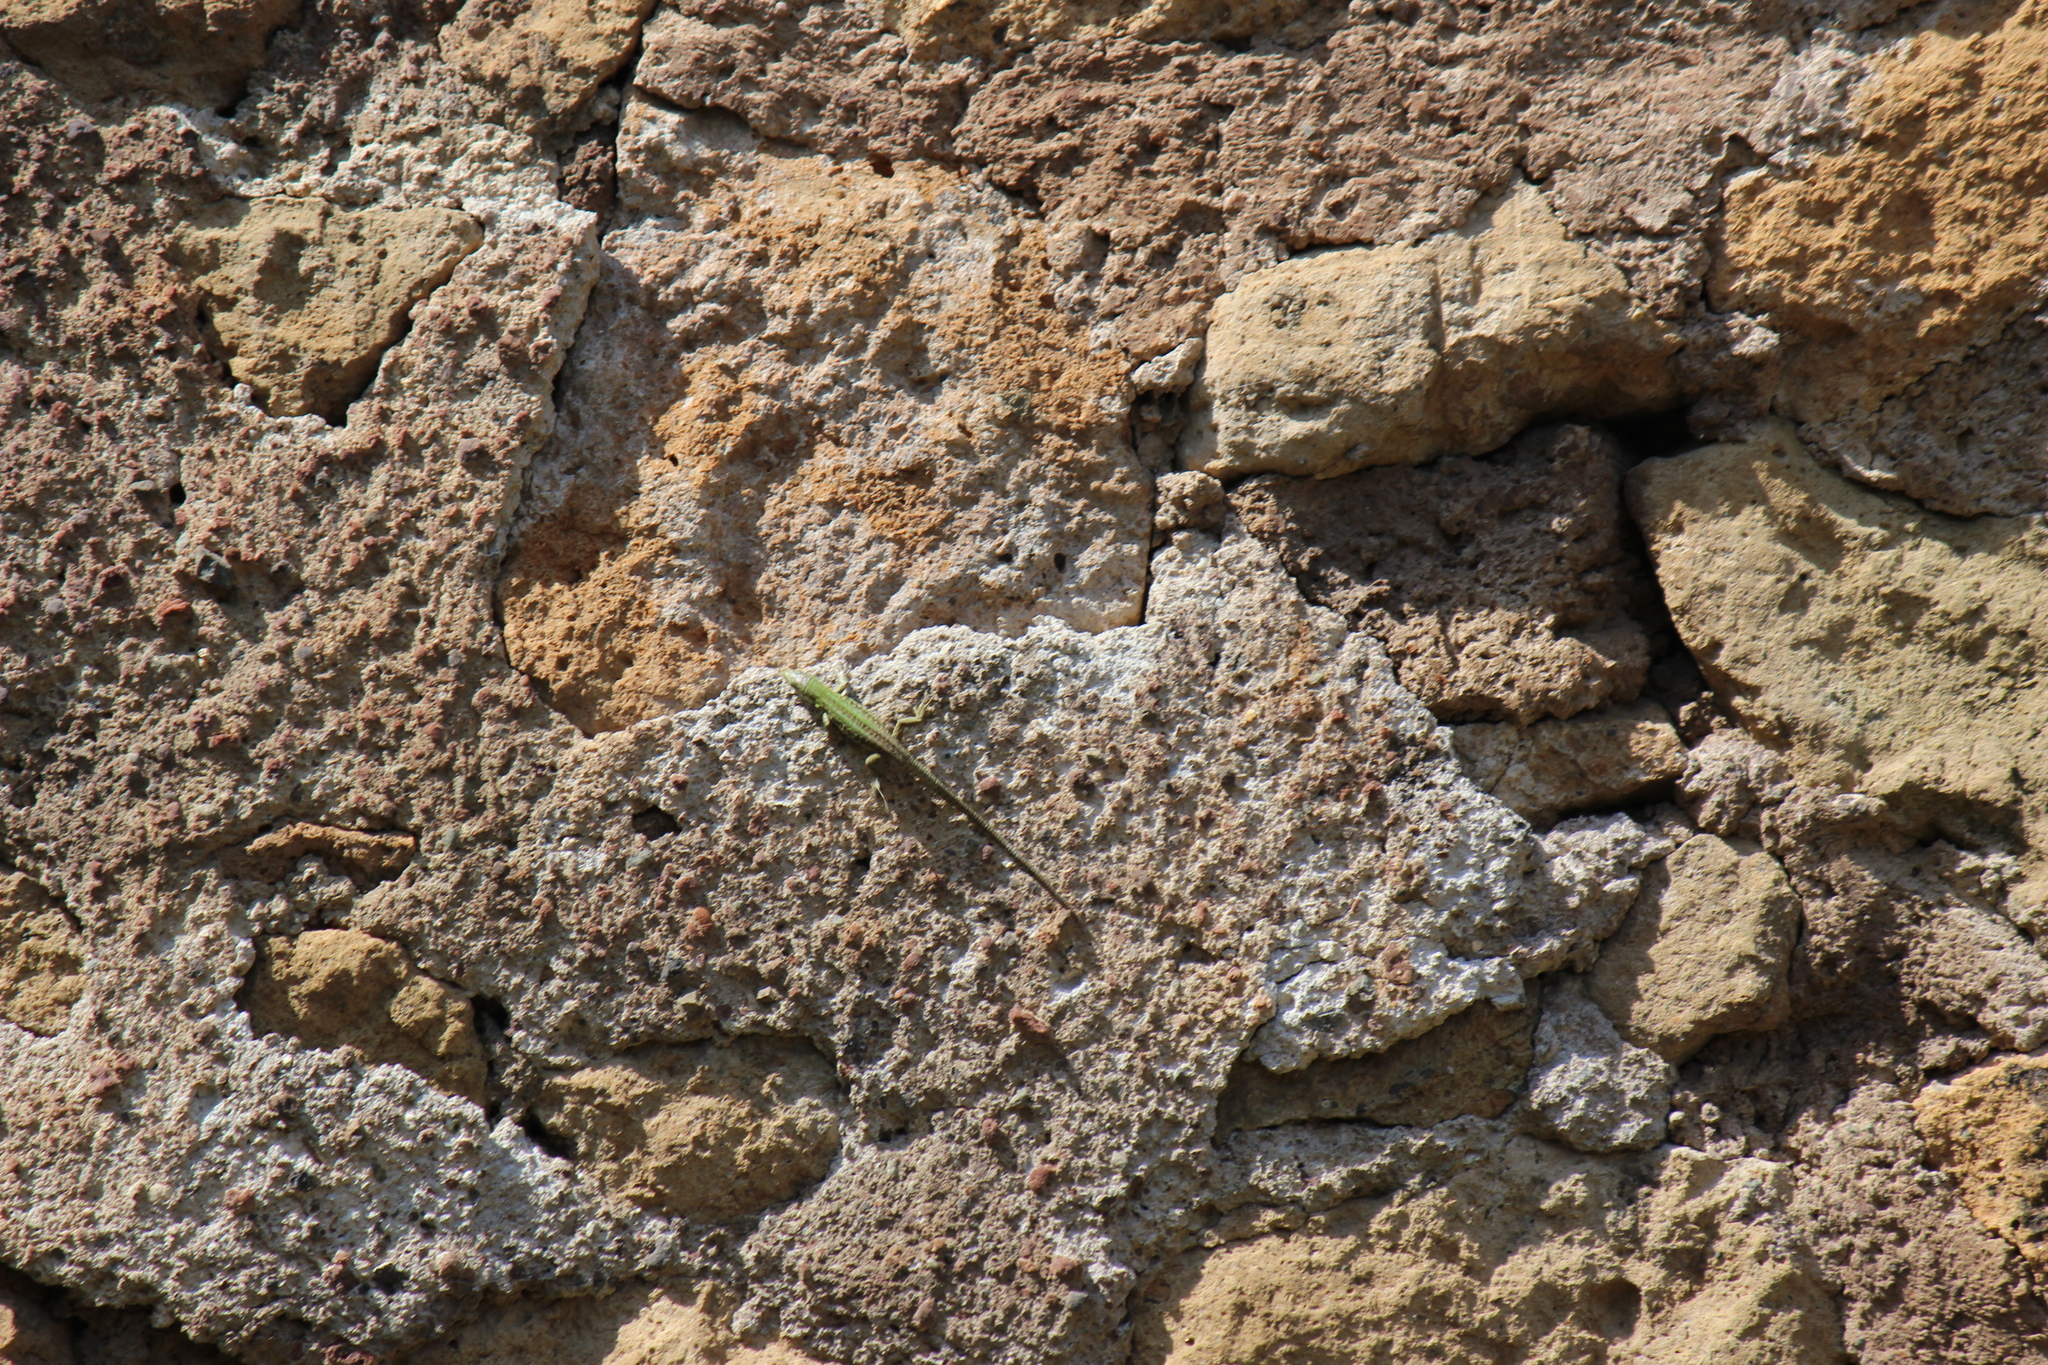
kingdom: Animalia
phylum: Chordata
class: Squamata
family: Lacertidae
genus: Podarcis
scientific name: Podarcis siculus
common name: Italian wall lizard
